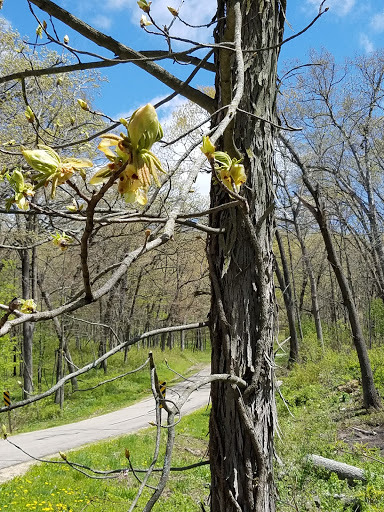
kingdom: Plantae
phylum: Tracheophyta
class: Magnoliopsida
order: Fagales
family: Juglandaceae
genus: Carya
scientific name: Carya ovata
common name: Shagbark hickory
